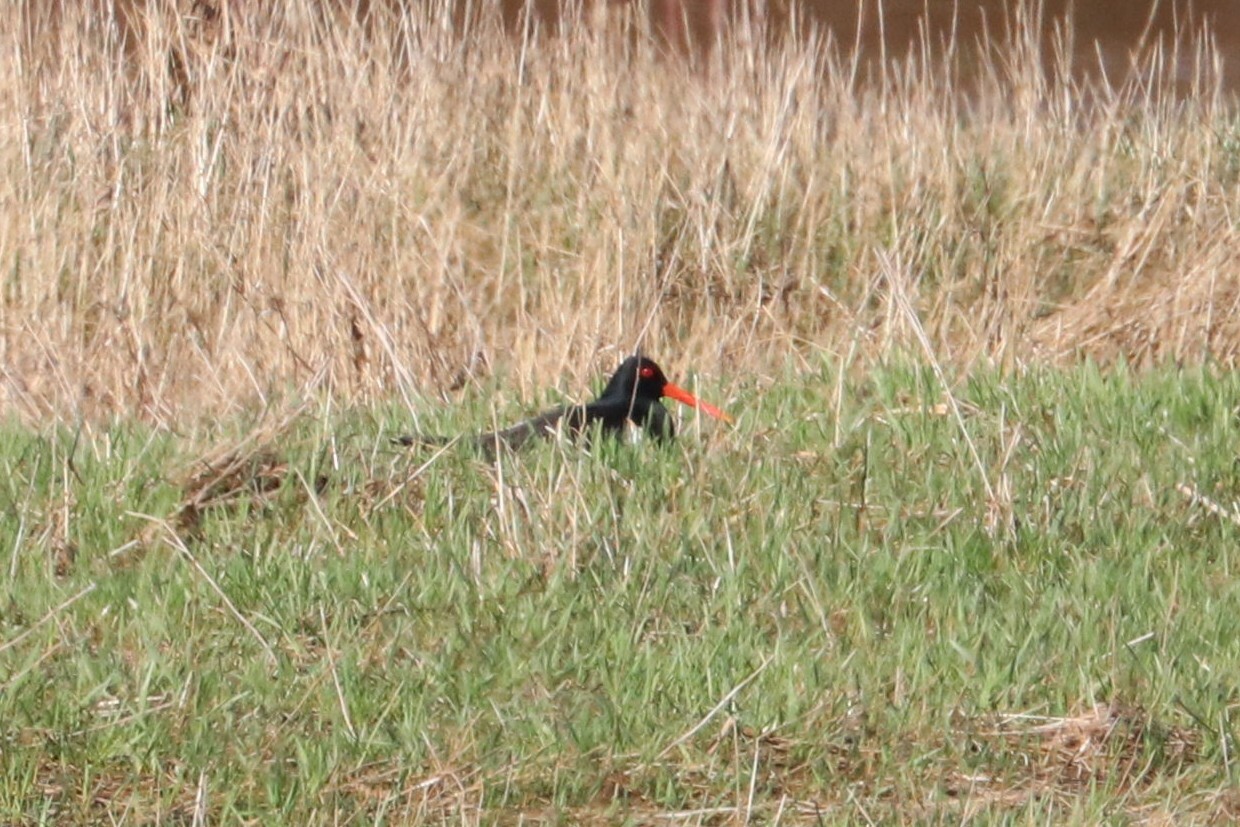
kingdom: Animalia
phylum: Chordata
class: Aves
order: Charadriiformes
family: Haematopodidae
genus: Haematopus
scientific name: Haematopus ostralegus
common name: Eurasian oystercatcher
